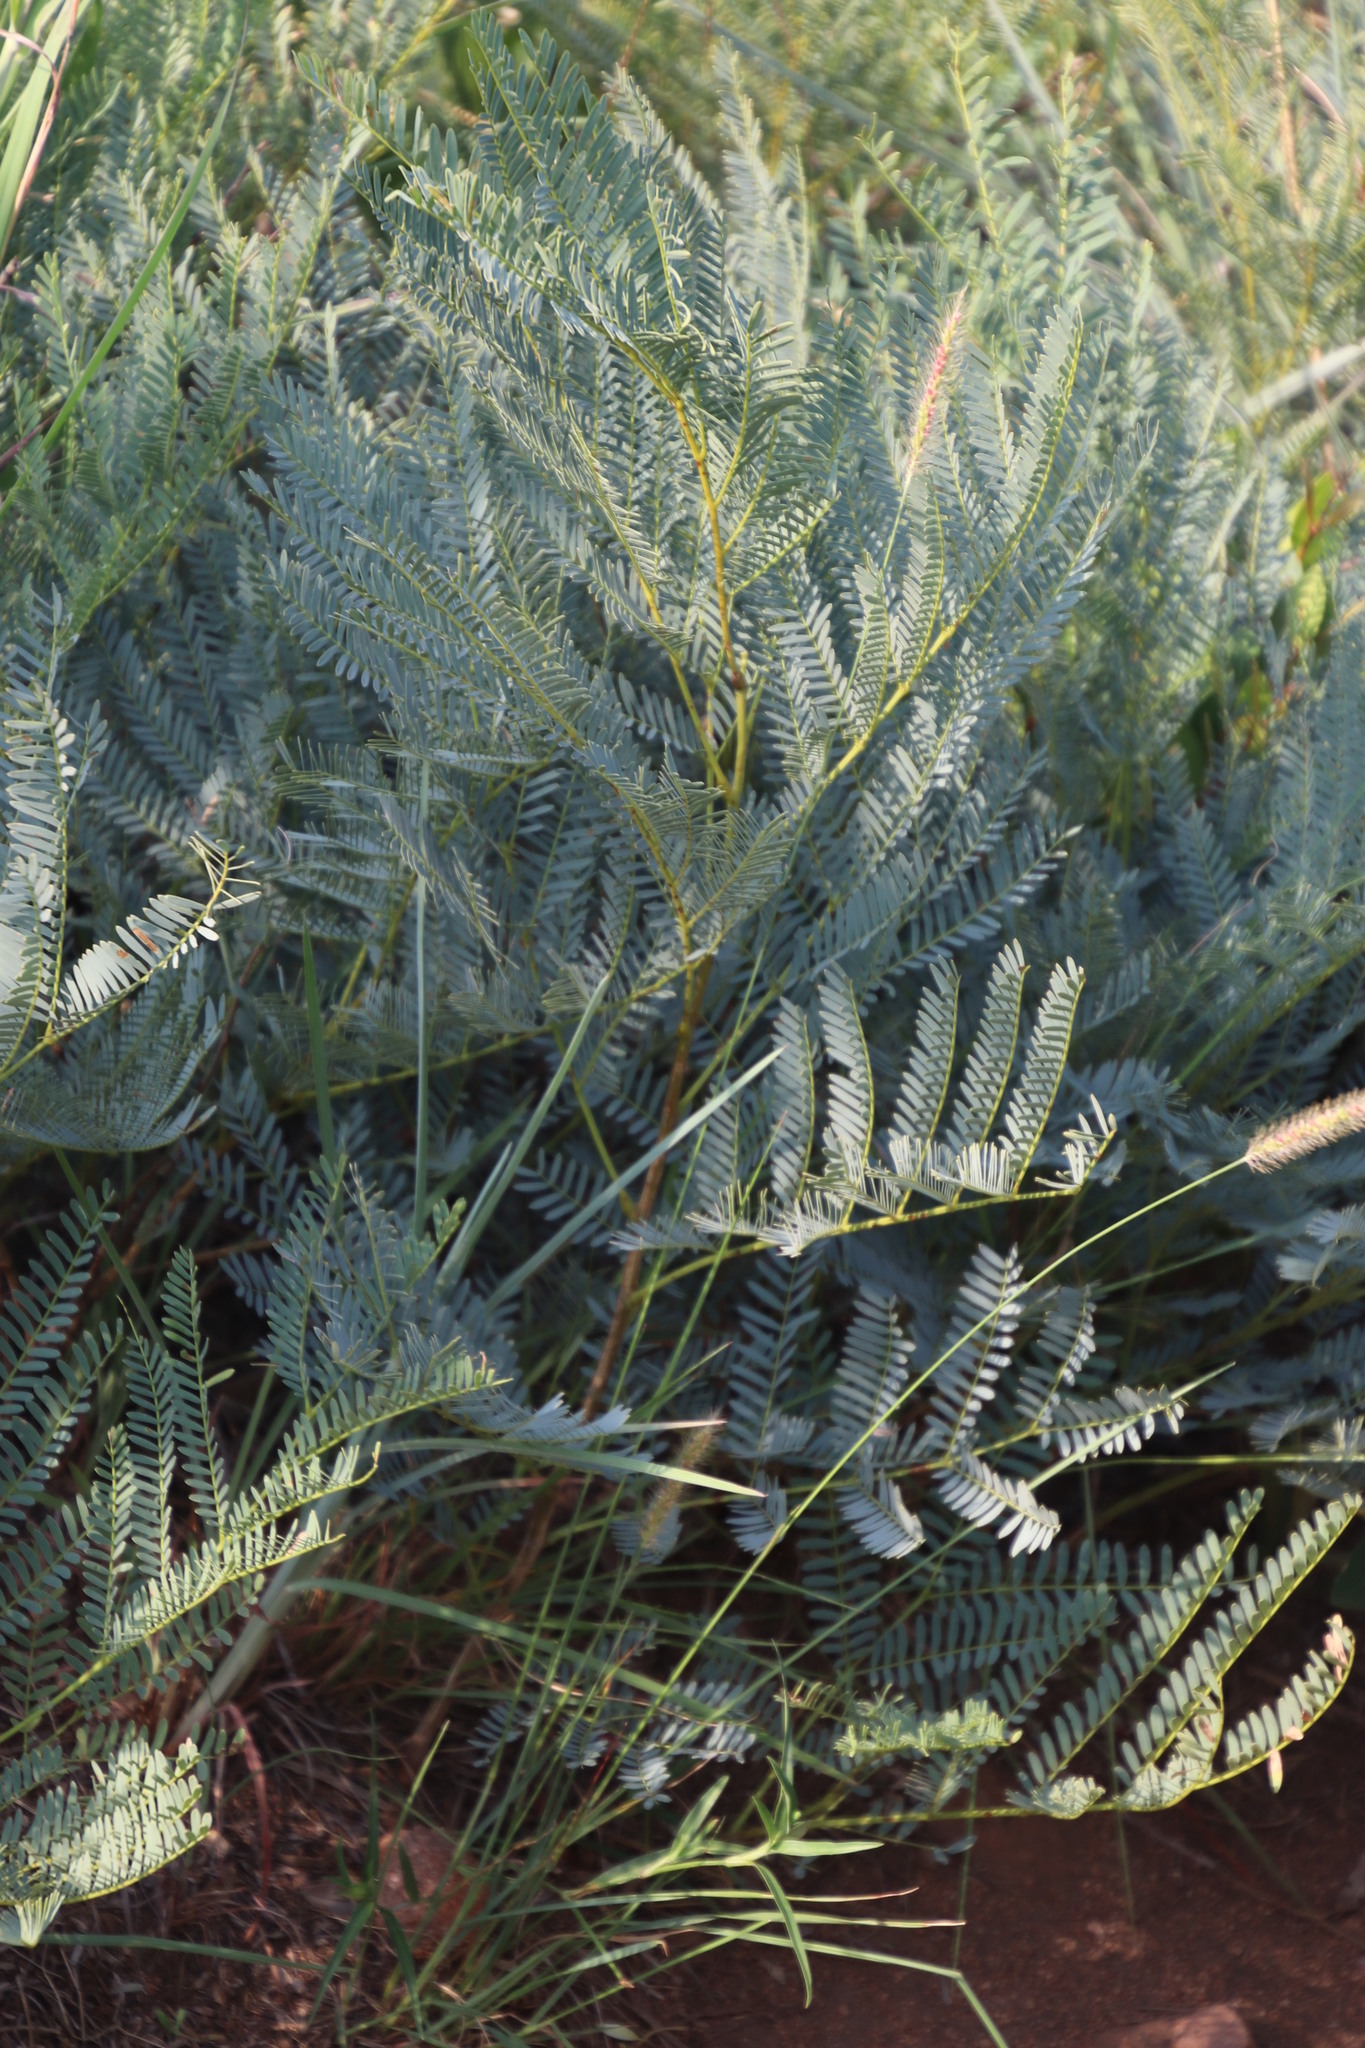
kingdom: Plantae
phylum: Tracheophyta
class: Magnoliopsida
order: Fabales
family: Fabaceae
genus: Elephantorrhiza
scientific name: Elephantorrhiza burkei
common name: Broad-pod elephant-root
